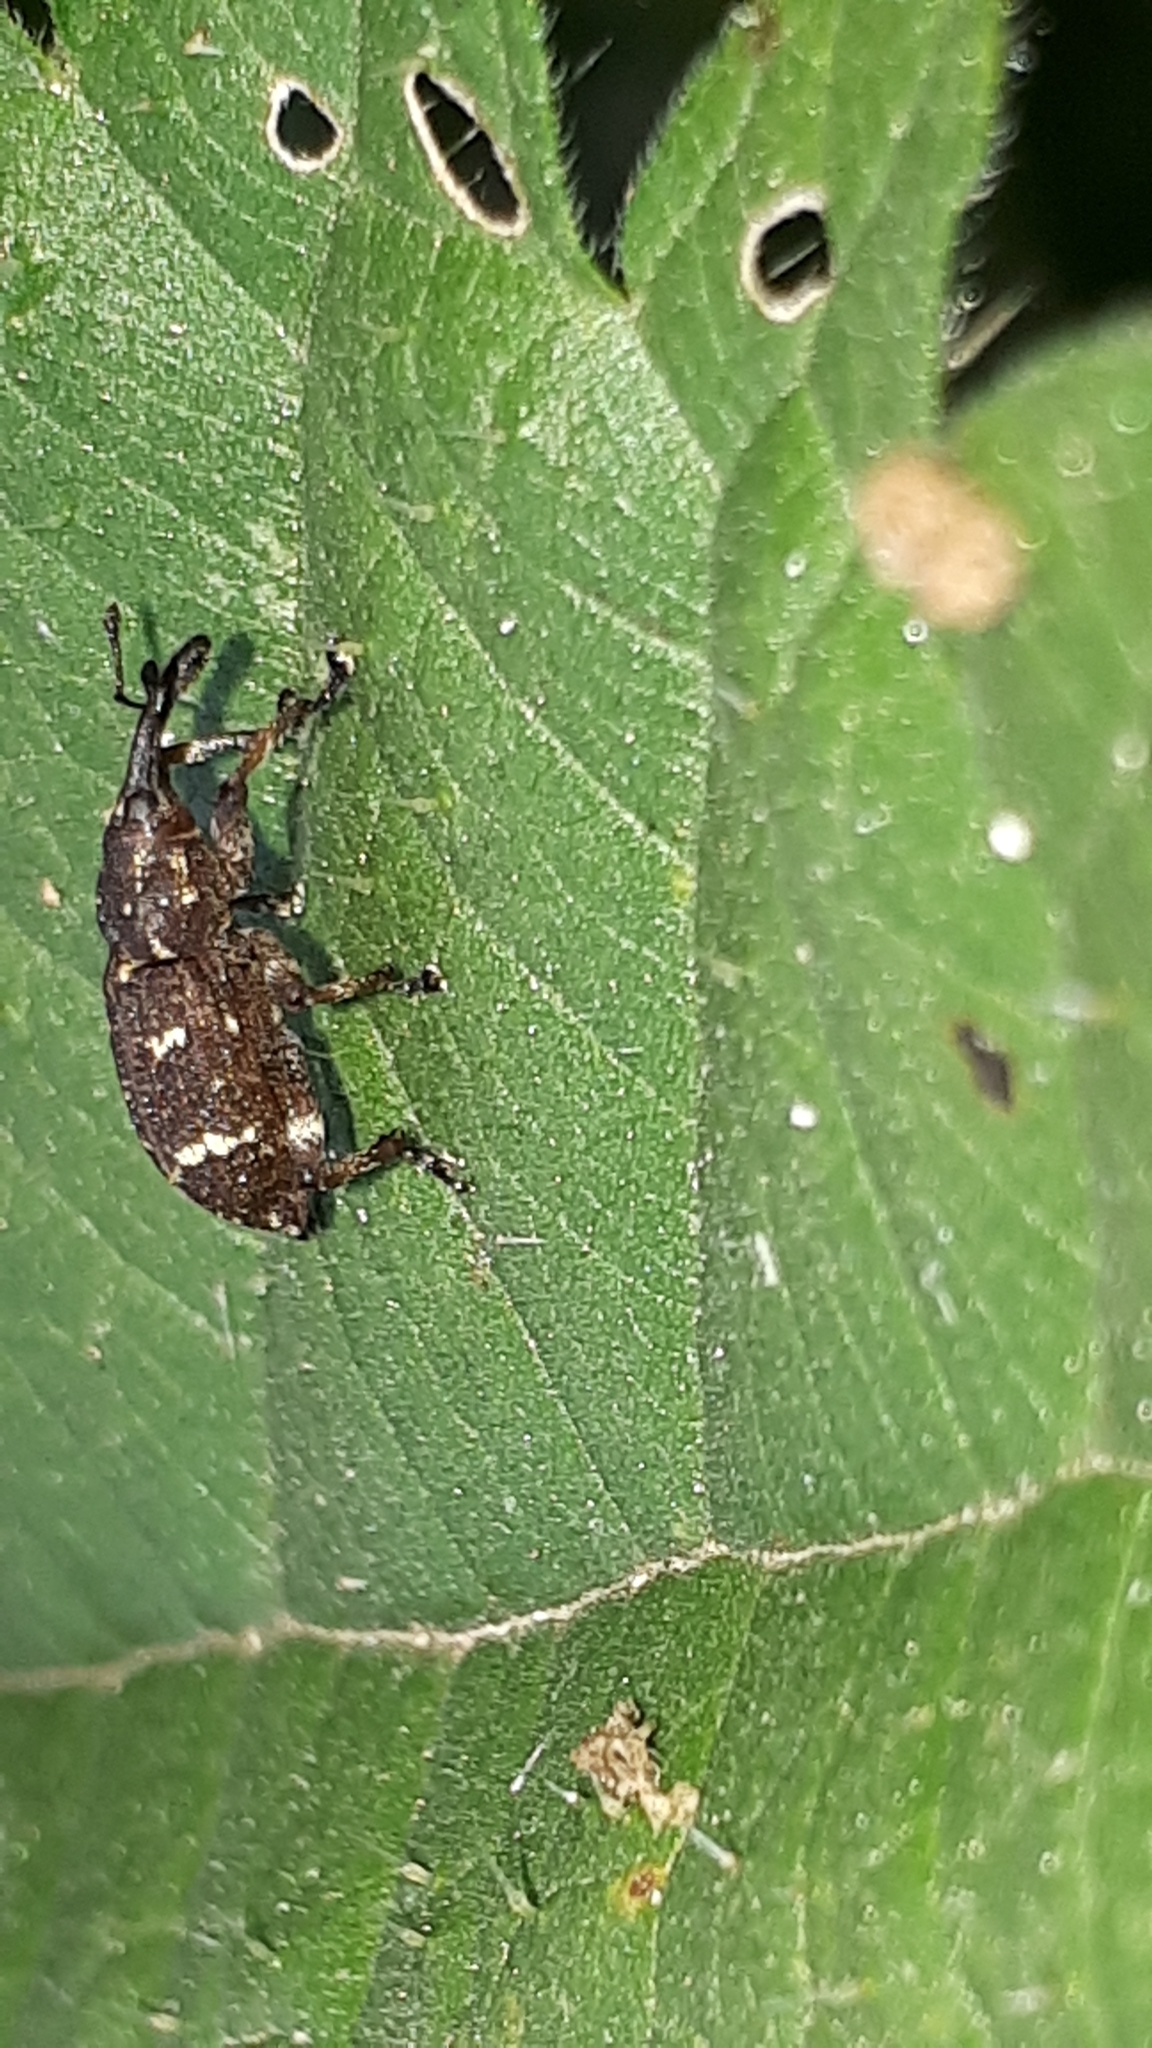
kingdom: Animalia
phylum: Arthropoda
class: Insecta
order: Coleoptera
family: Curculionidae
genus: Pissodes
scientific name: Pissodes pini
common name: Banded pine weevil
